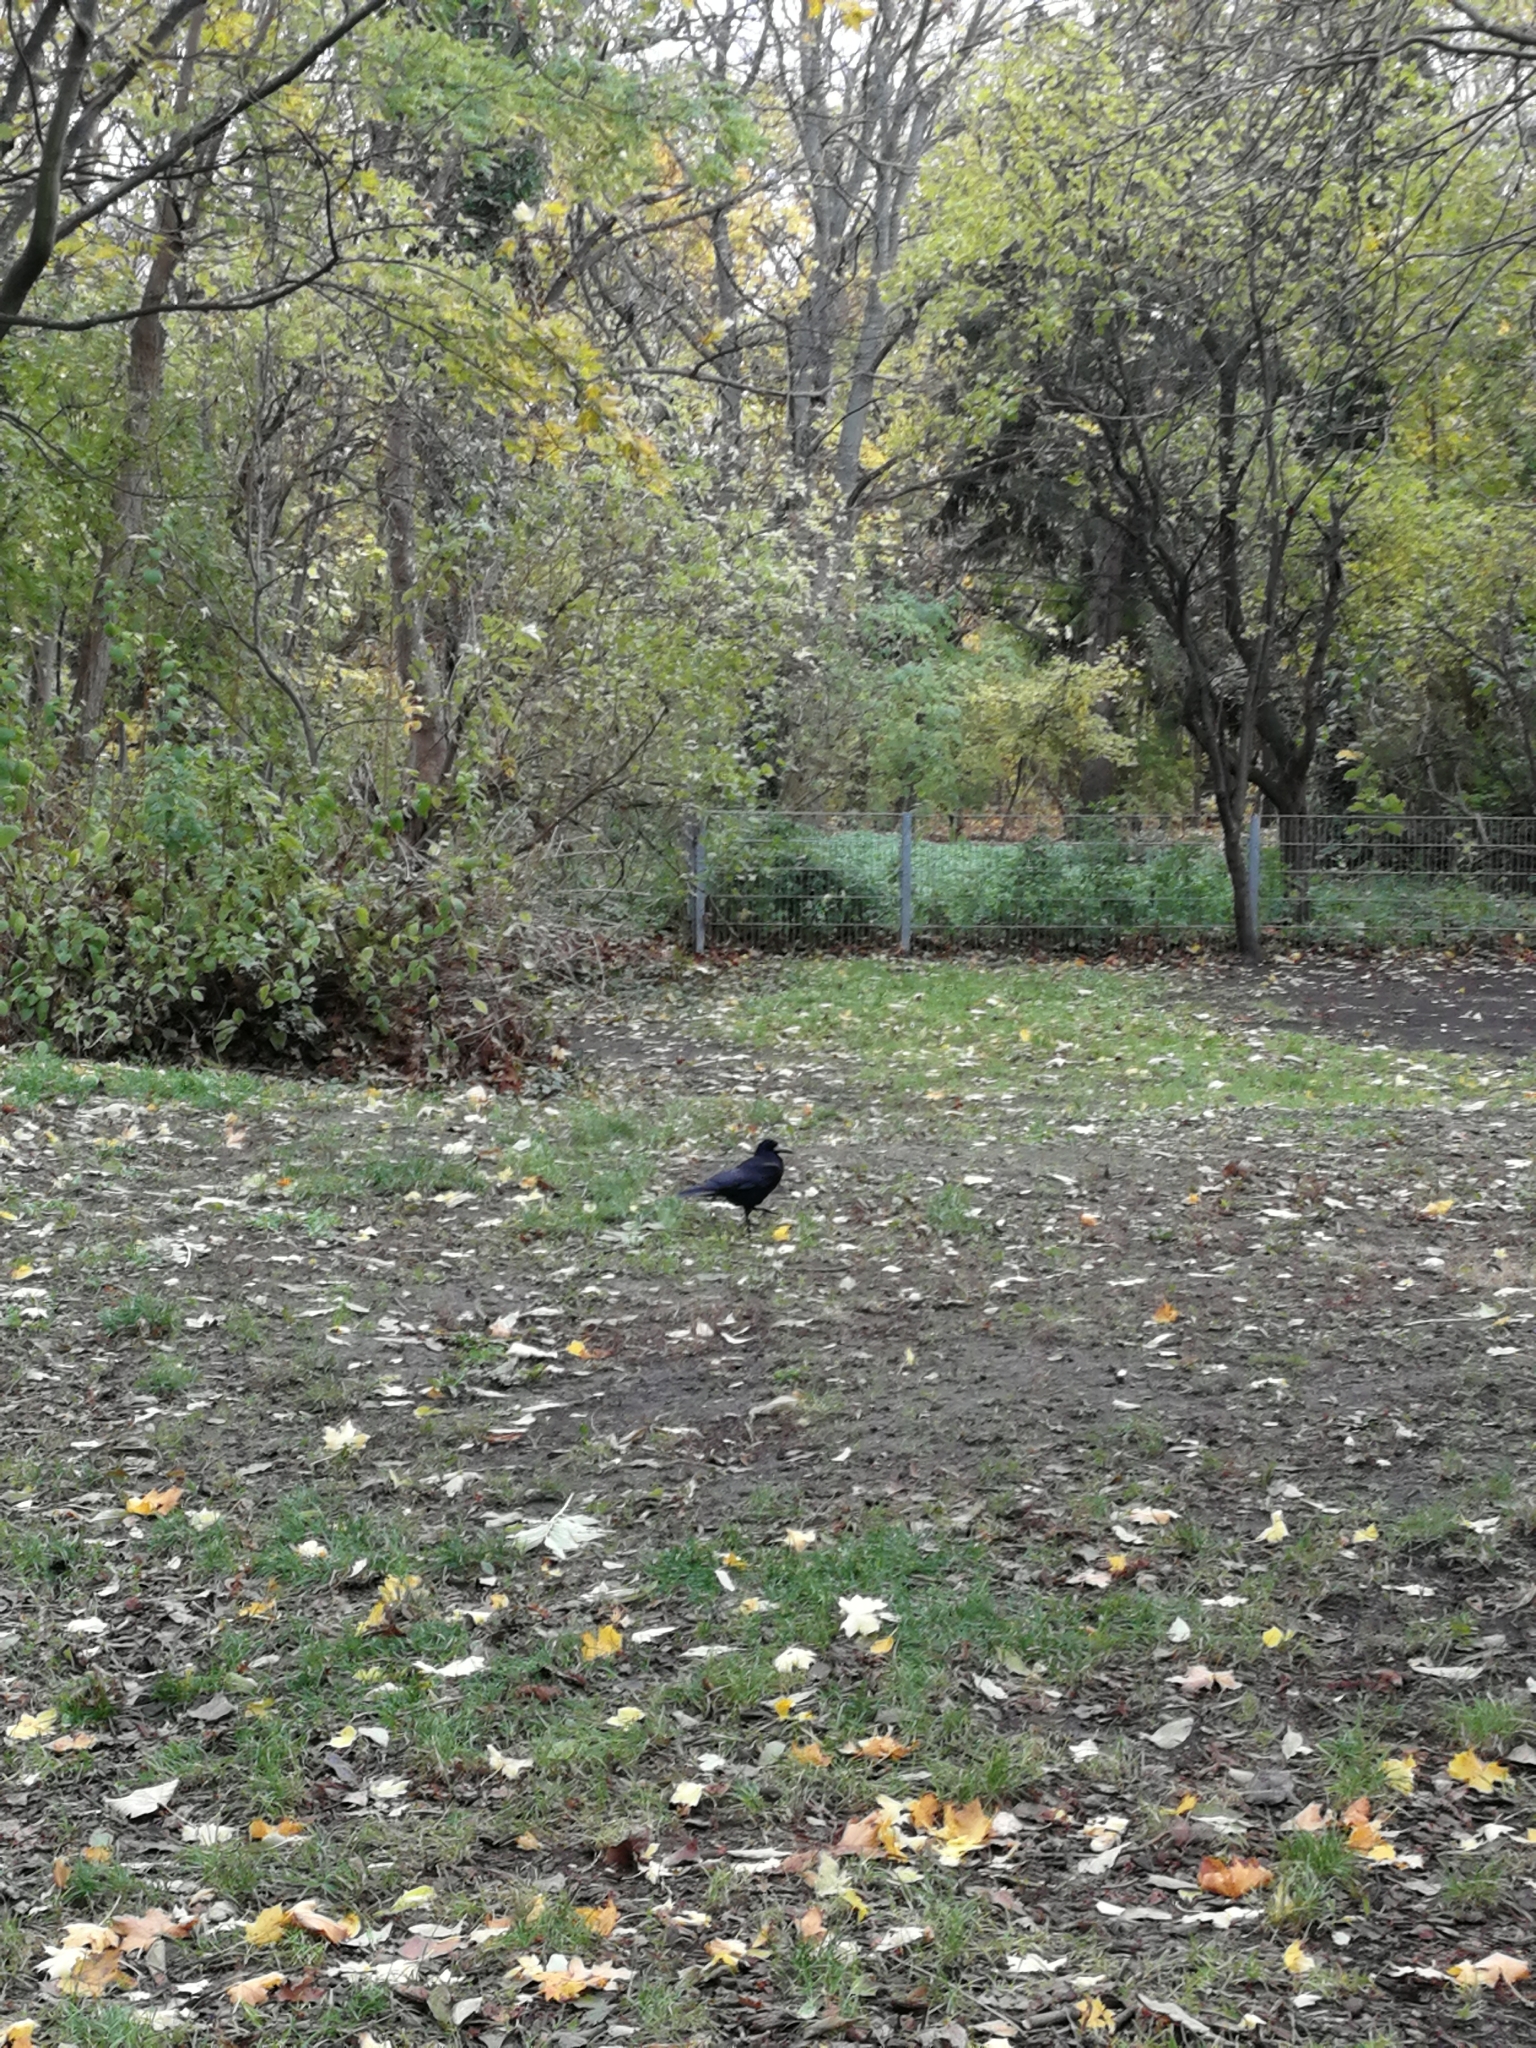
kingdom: Animalia
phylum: Chordata
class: Aves
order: Passeriformes
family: Corvidae
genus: Corvus
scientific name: Corvus frugilegus
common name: Rook
